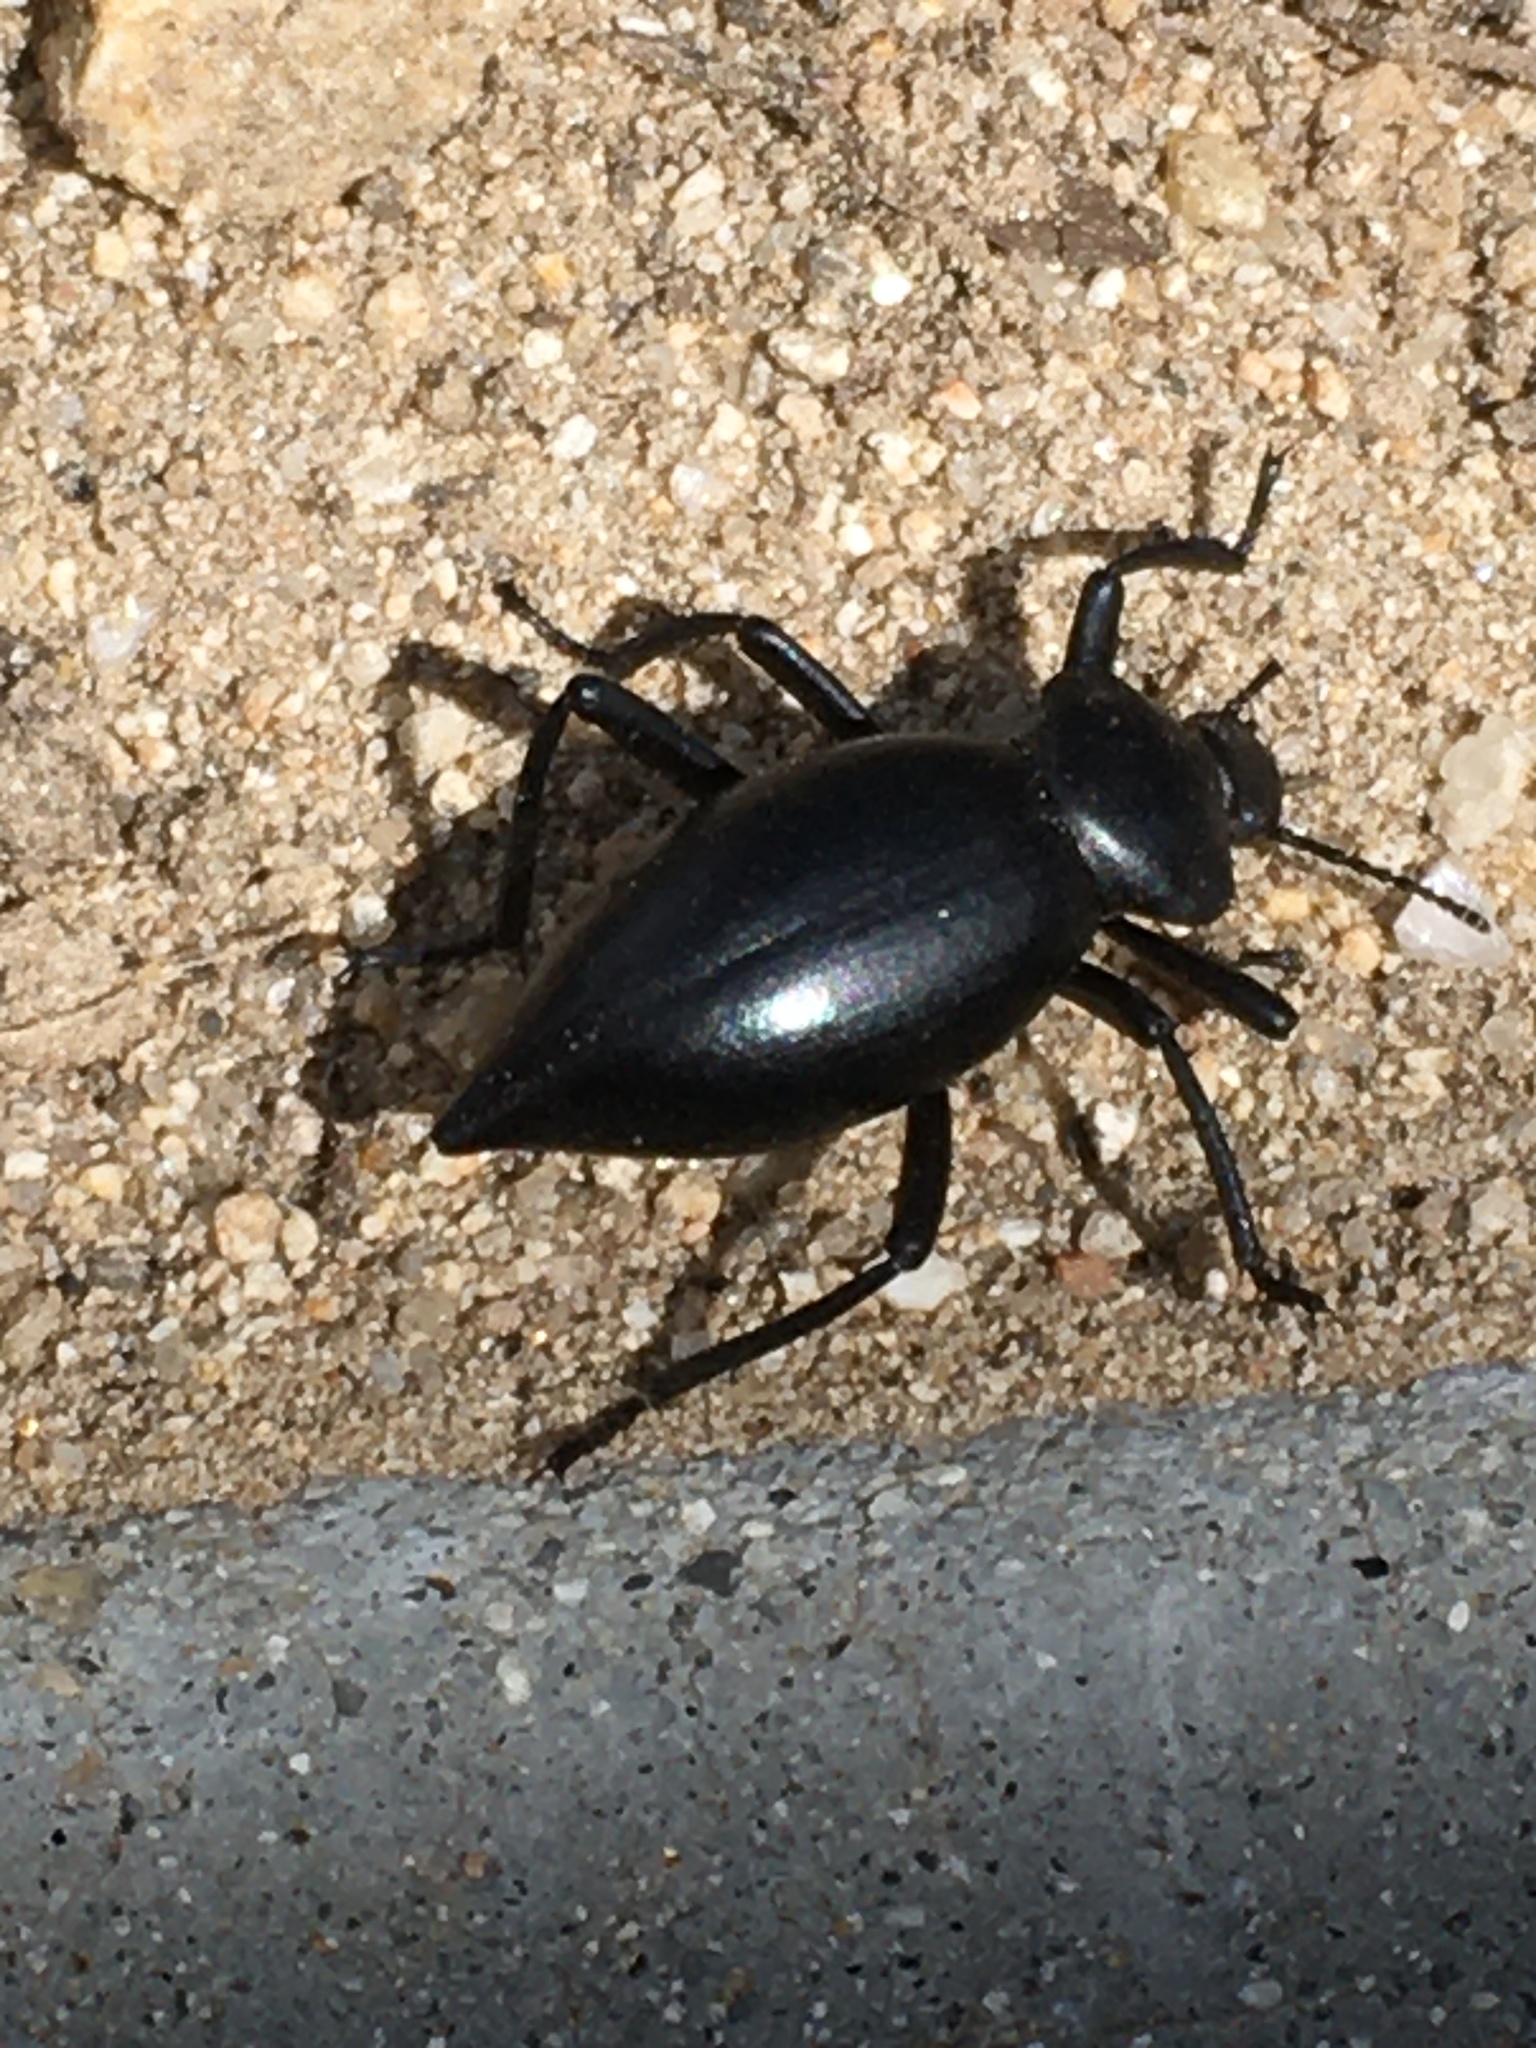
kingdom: Animalia
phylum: Arthropoda
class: Insecta
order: Coleoptera
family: Tenebrionidae
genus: Eleodes
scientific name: Eleodes acuticauda
